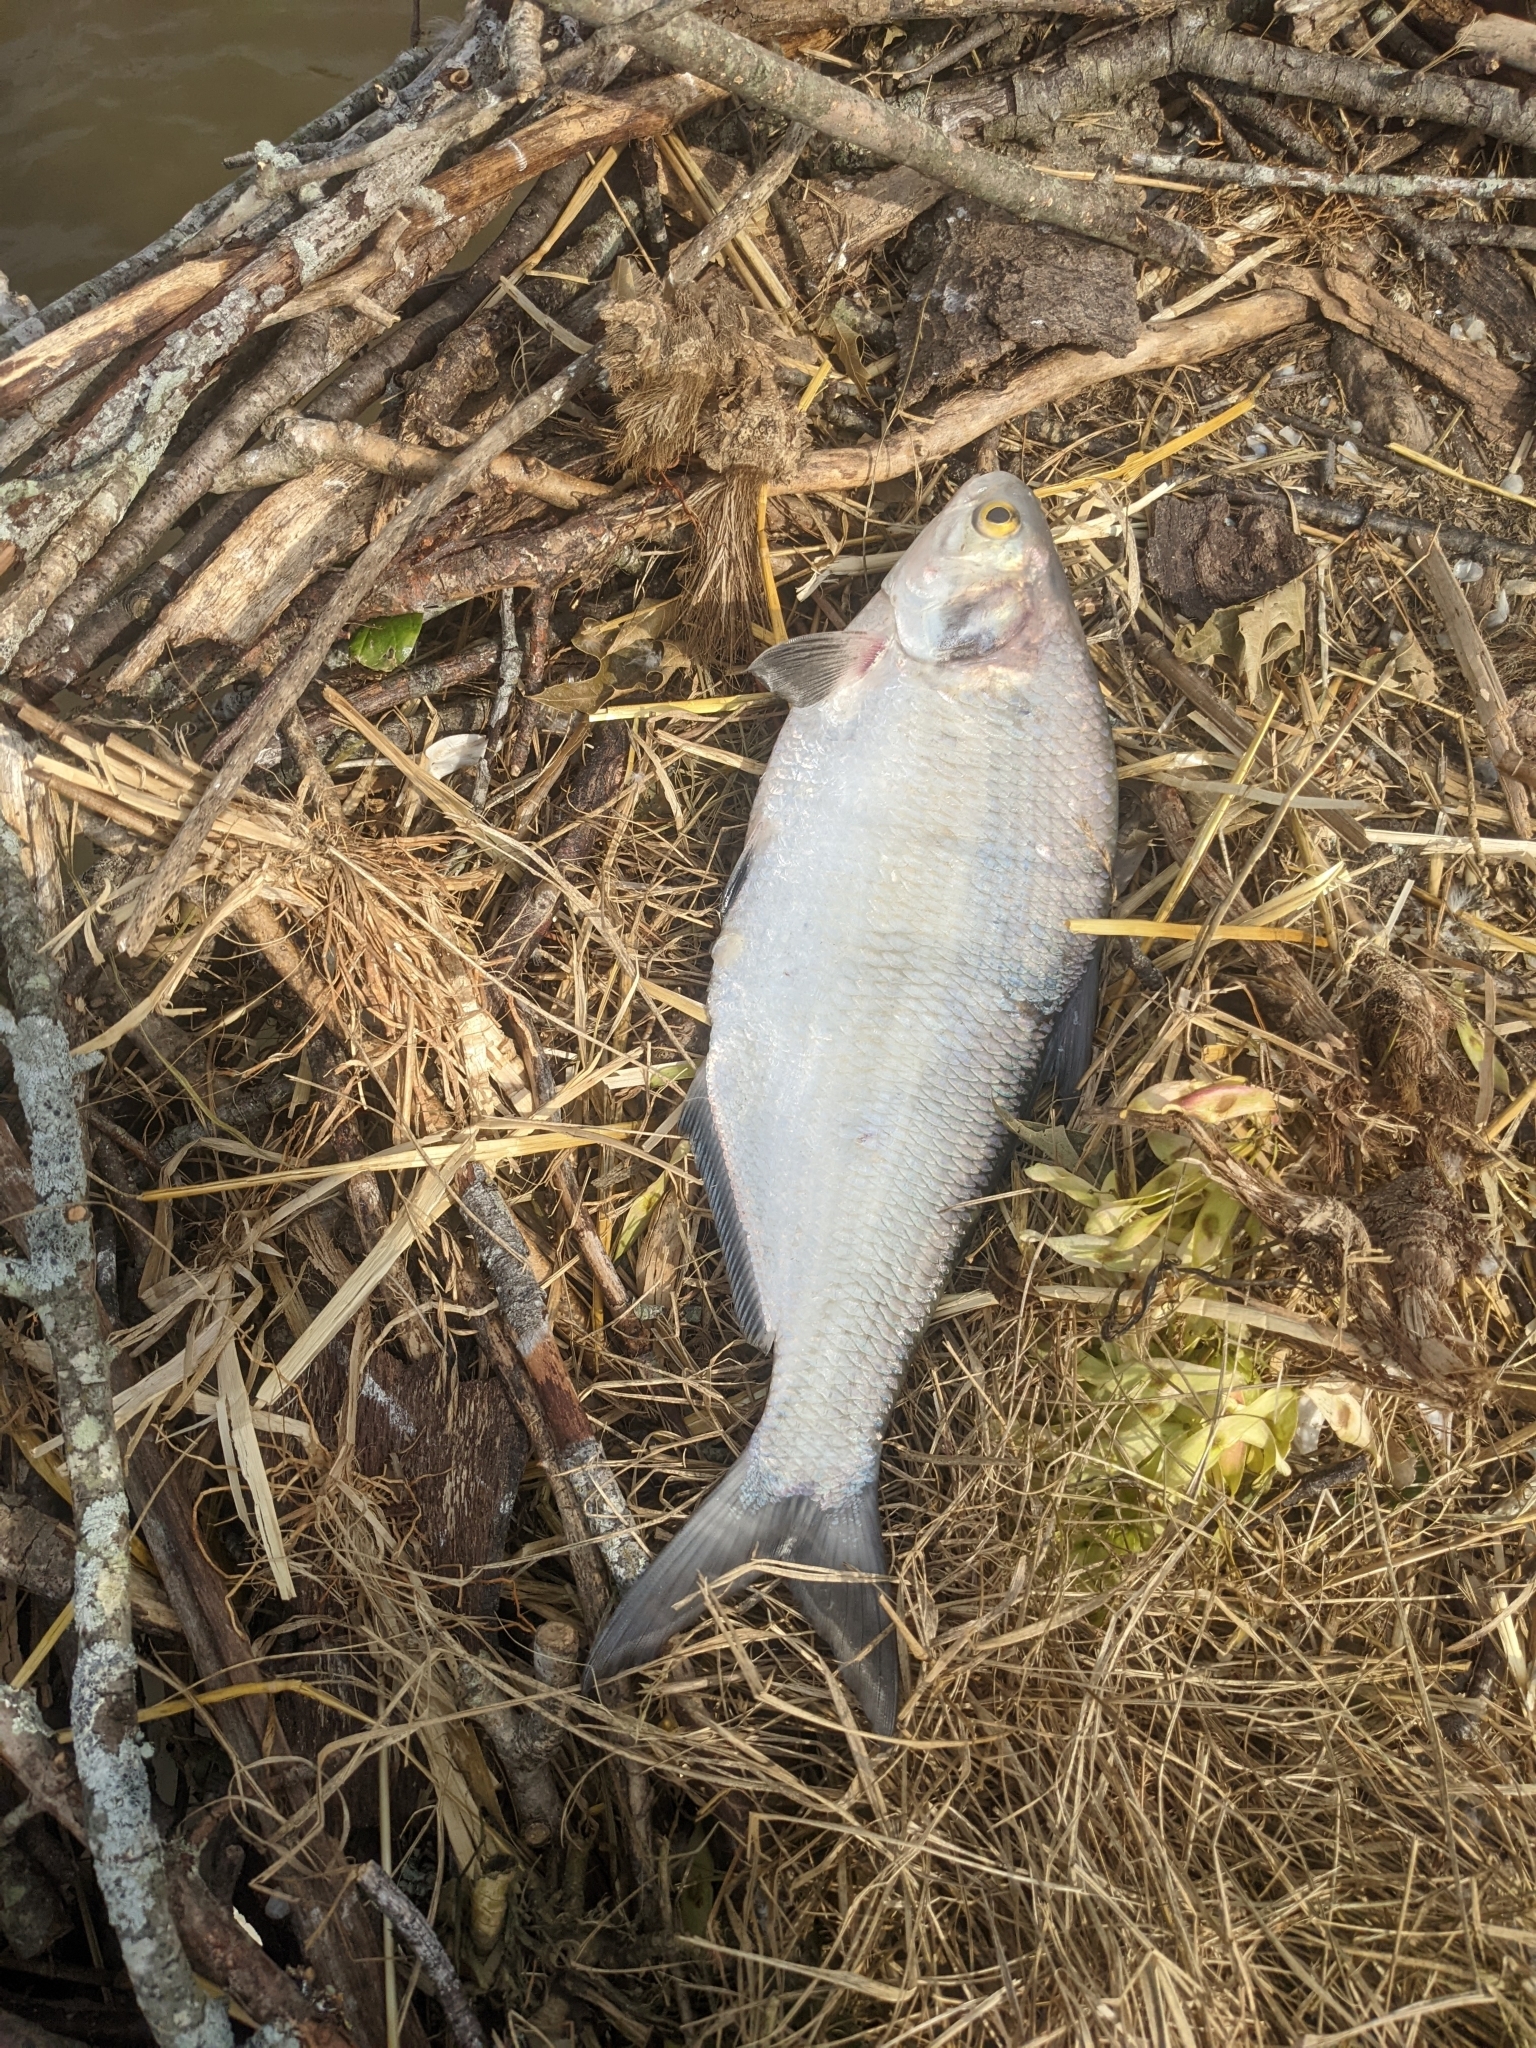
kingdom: Animalia
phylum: Chordata
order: Clupeiformes
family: Clupeidae
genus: Dorosoma
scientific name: Dorosoma cepedianum
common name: Gizzard shad
